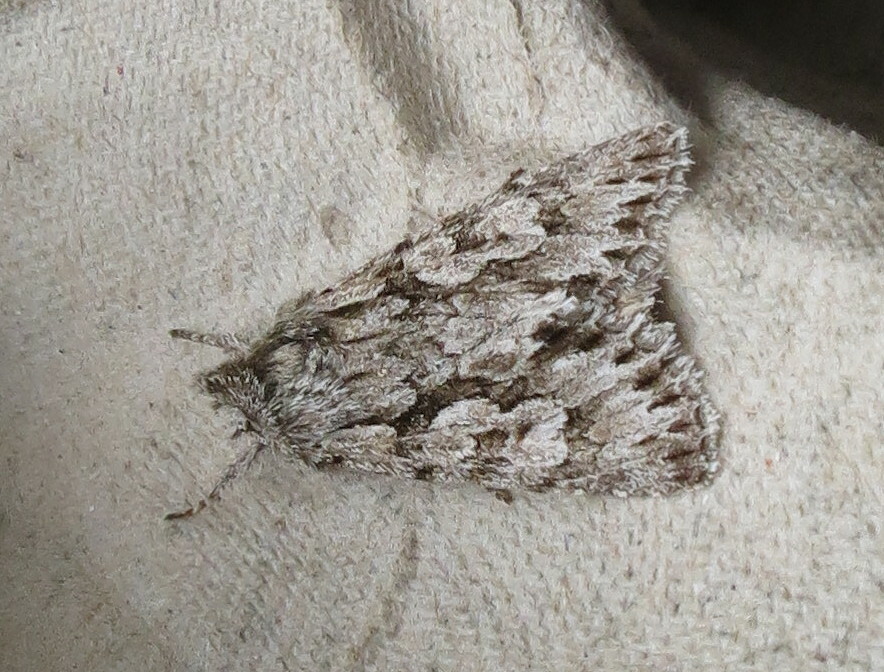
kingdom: Animalia
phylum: Arthropoda
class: Insecta
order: Lepidoptera
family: Noctuidae
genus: Xylocampa
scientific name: Xylocampa areola
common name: Early grey
